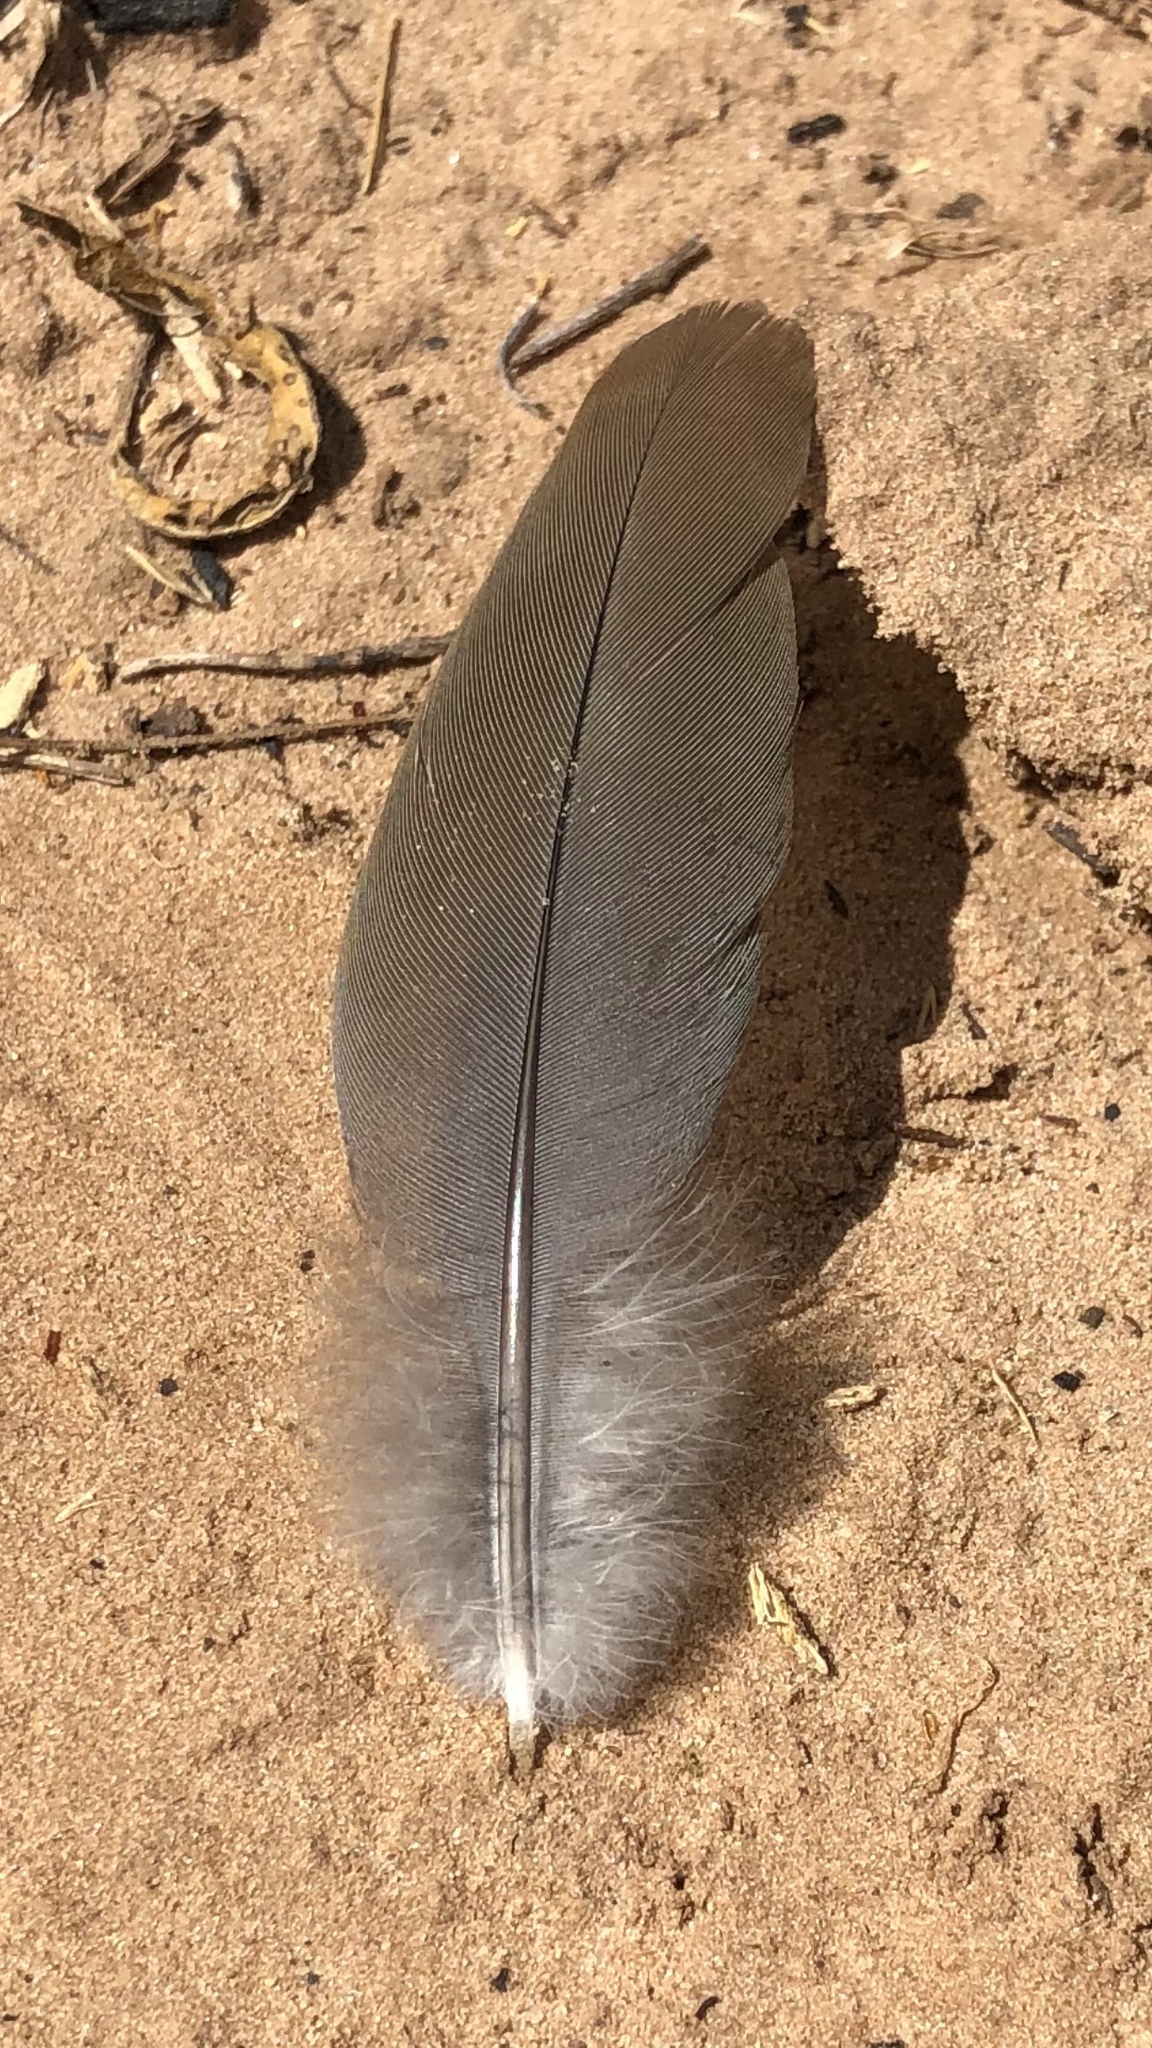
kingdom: Animalia
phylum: Chordata
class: Aves
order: Columbiformes
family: Columbidae
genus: Zenaida
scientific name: Zenaida macroura
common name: Mourning dove
